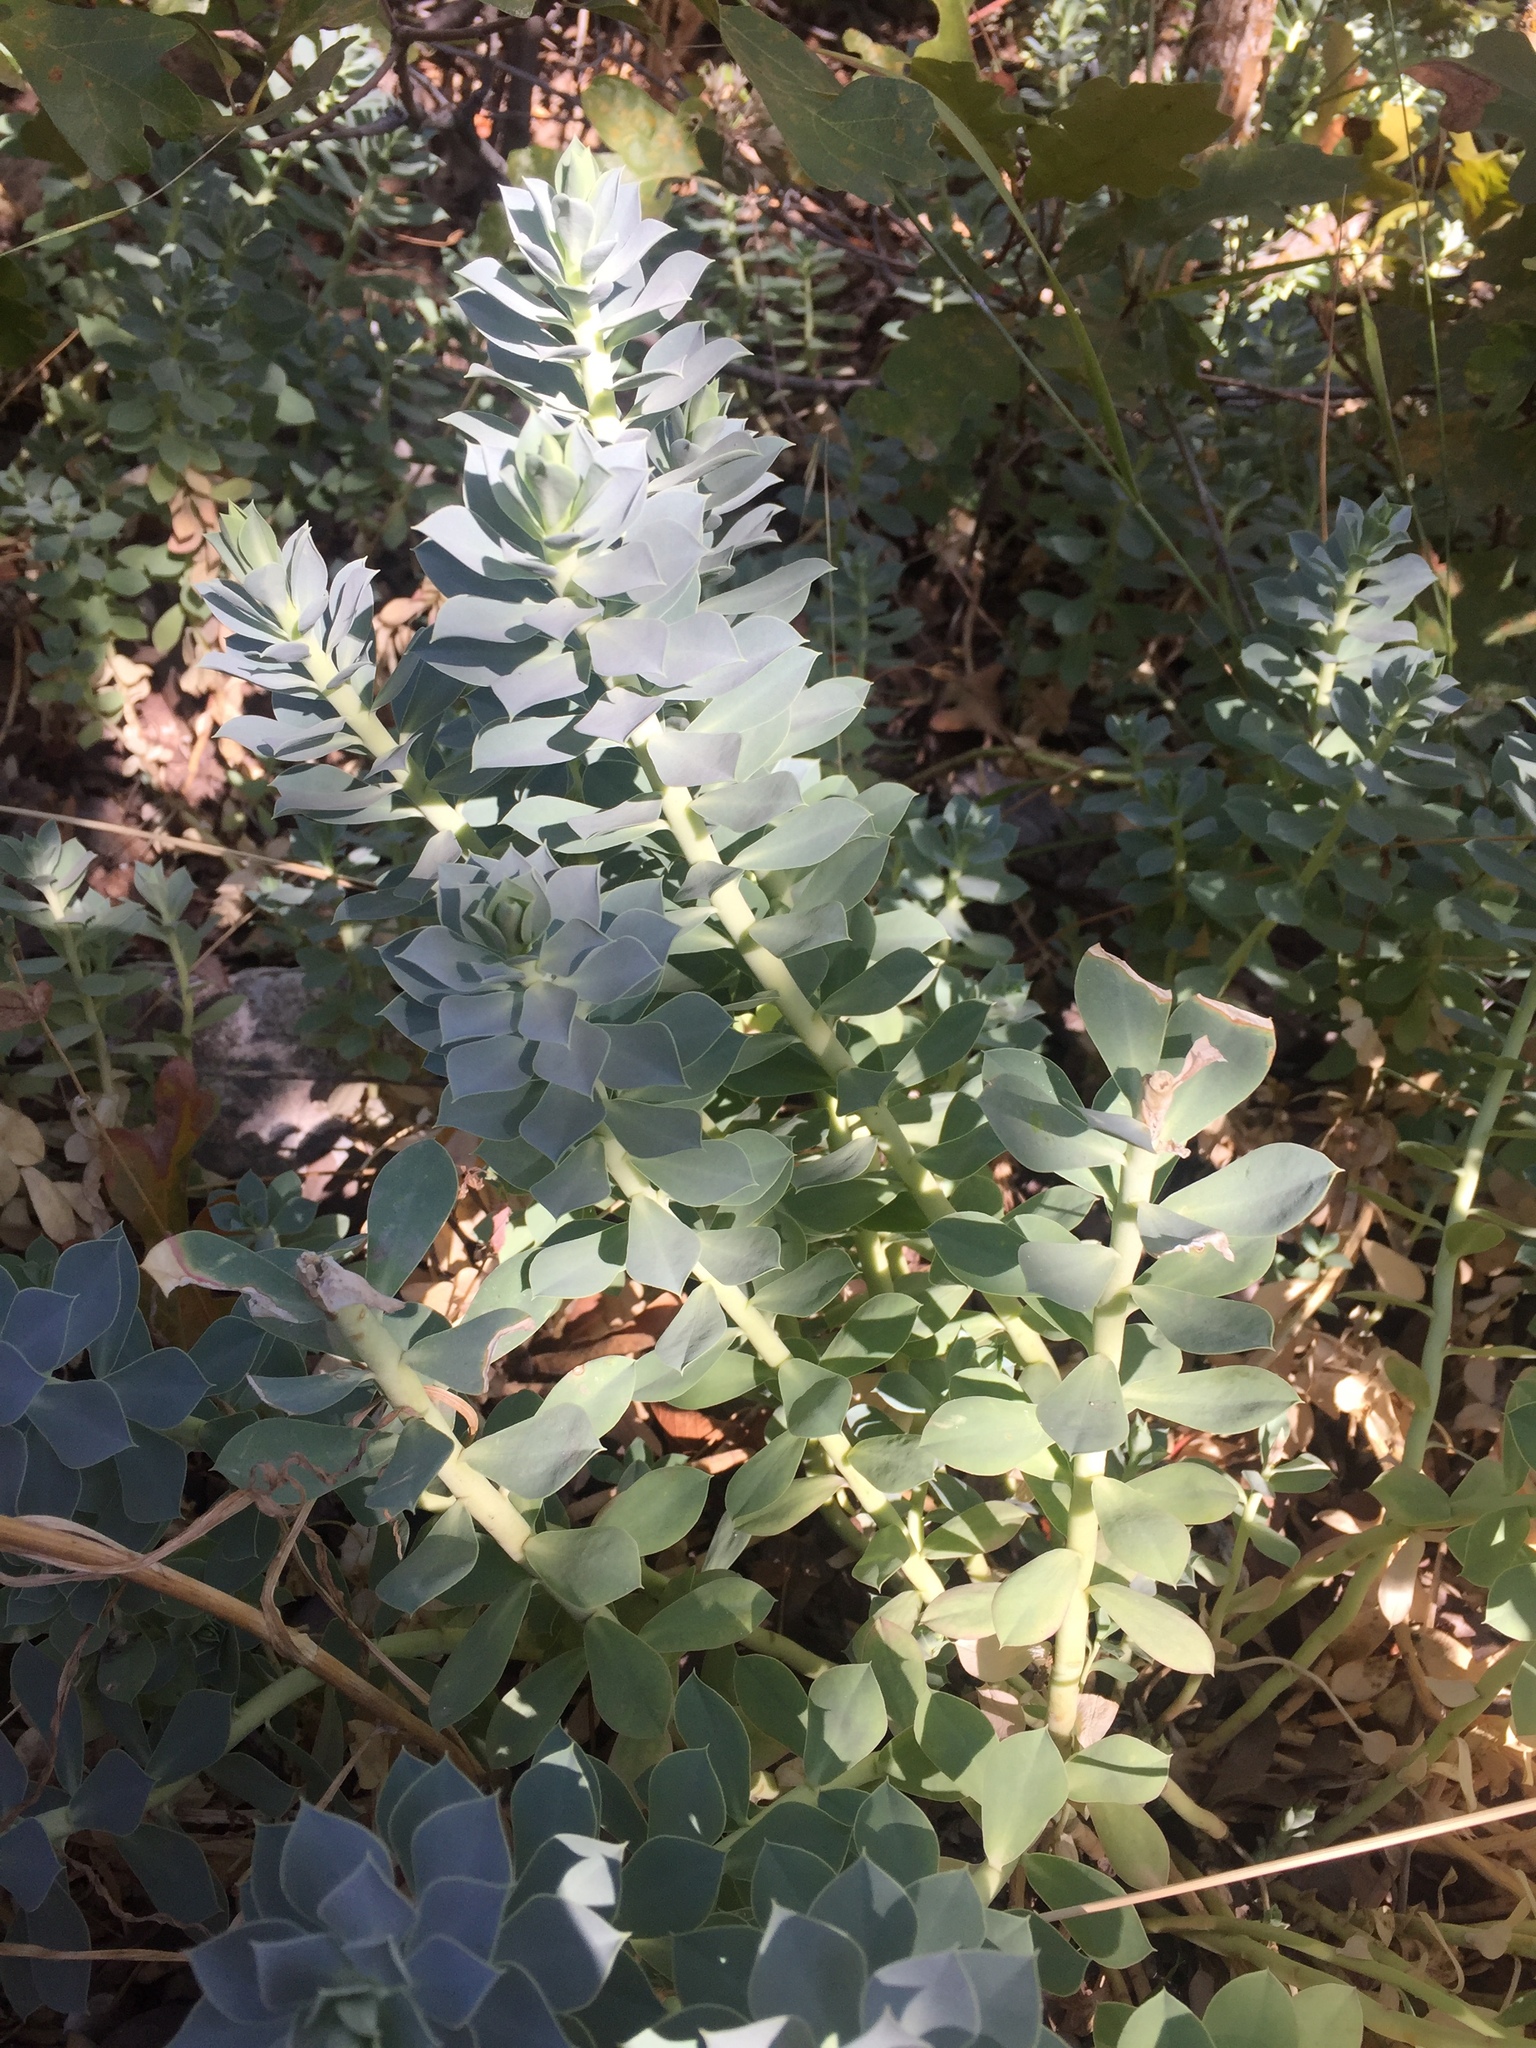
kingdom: Plantae
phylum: Tracheophyta
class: Magnoliopsida
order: Malpighiales
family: Euphorbiaceae
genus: Euphorbia
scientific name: Euphorbia myrsinites
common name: Myrtle spurge
